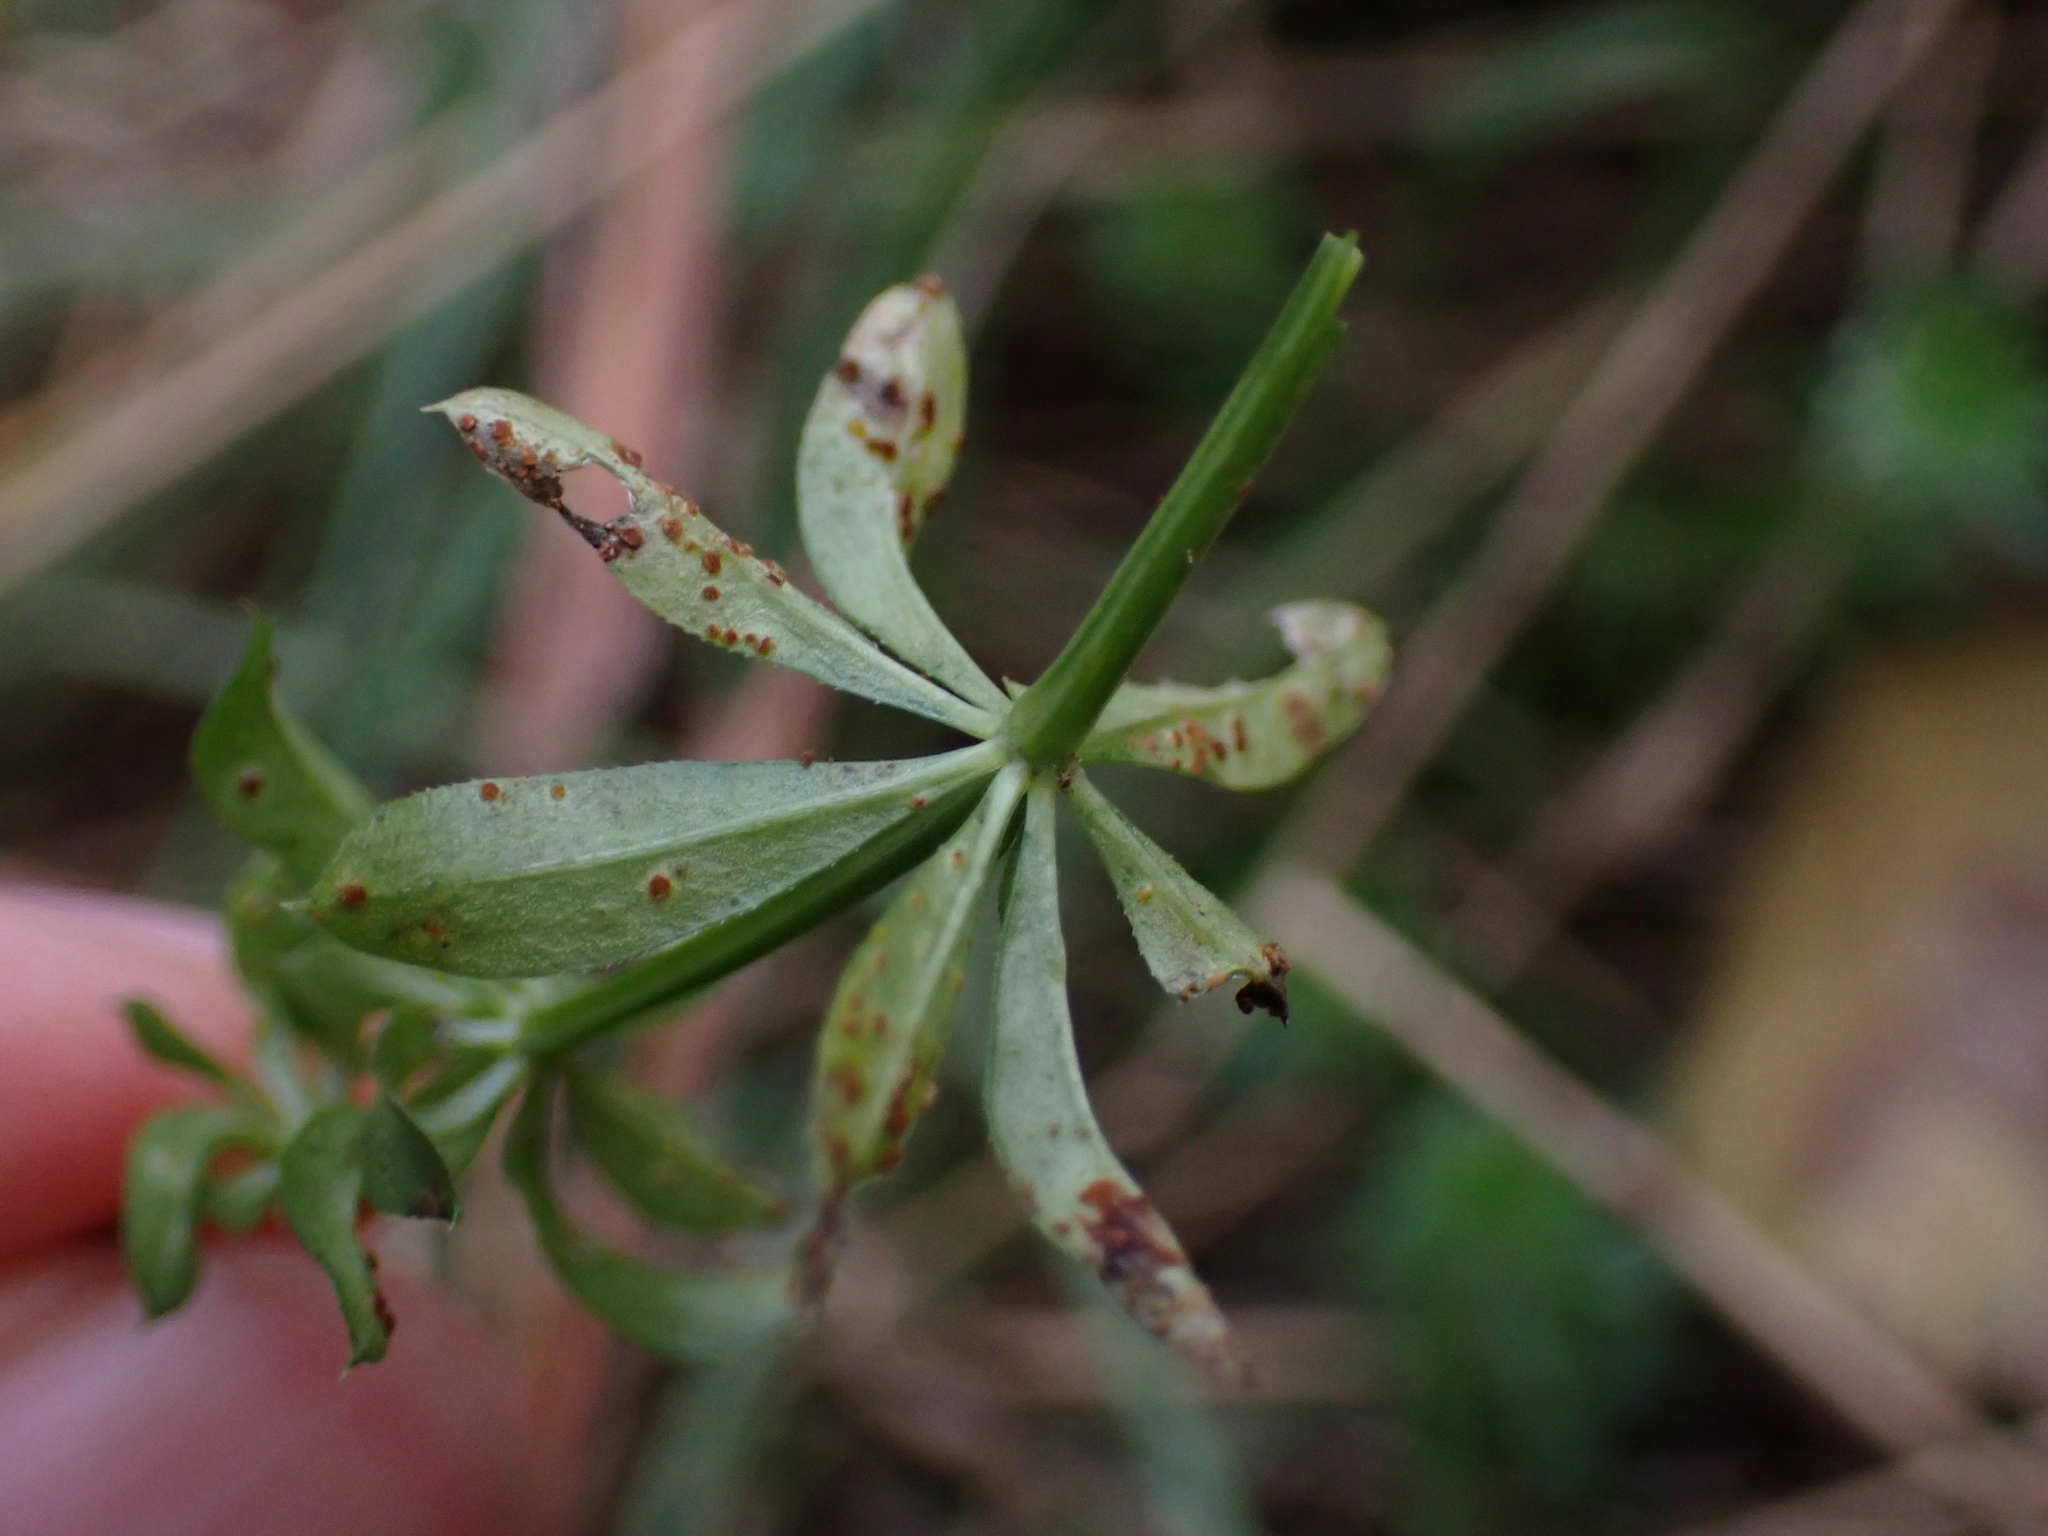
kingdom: Fungi
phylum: Basidiomycota
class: Pucciniomycetes
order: Pucciniales
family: Pucciniaceae
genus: Puccinia
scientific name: Puccinia punctata
